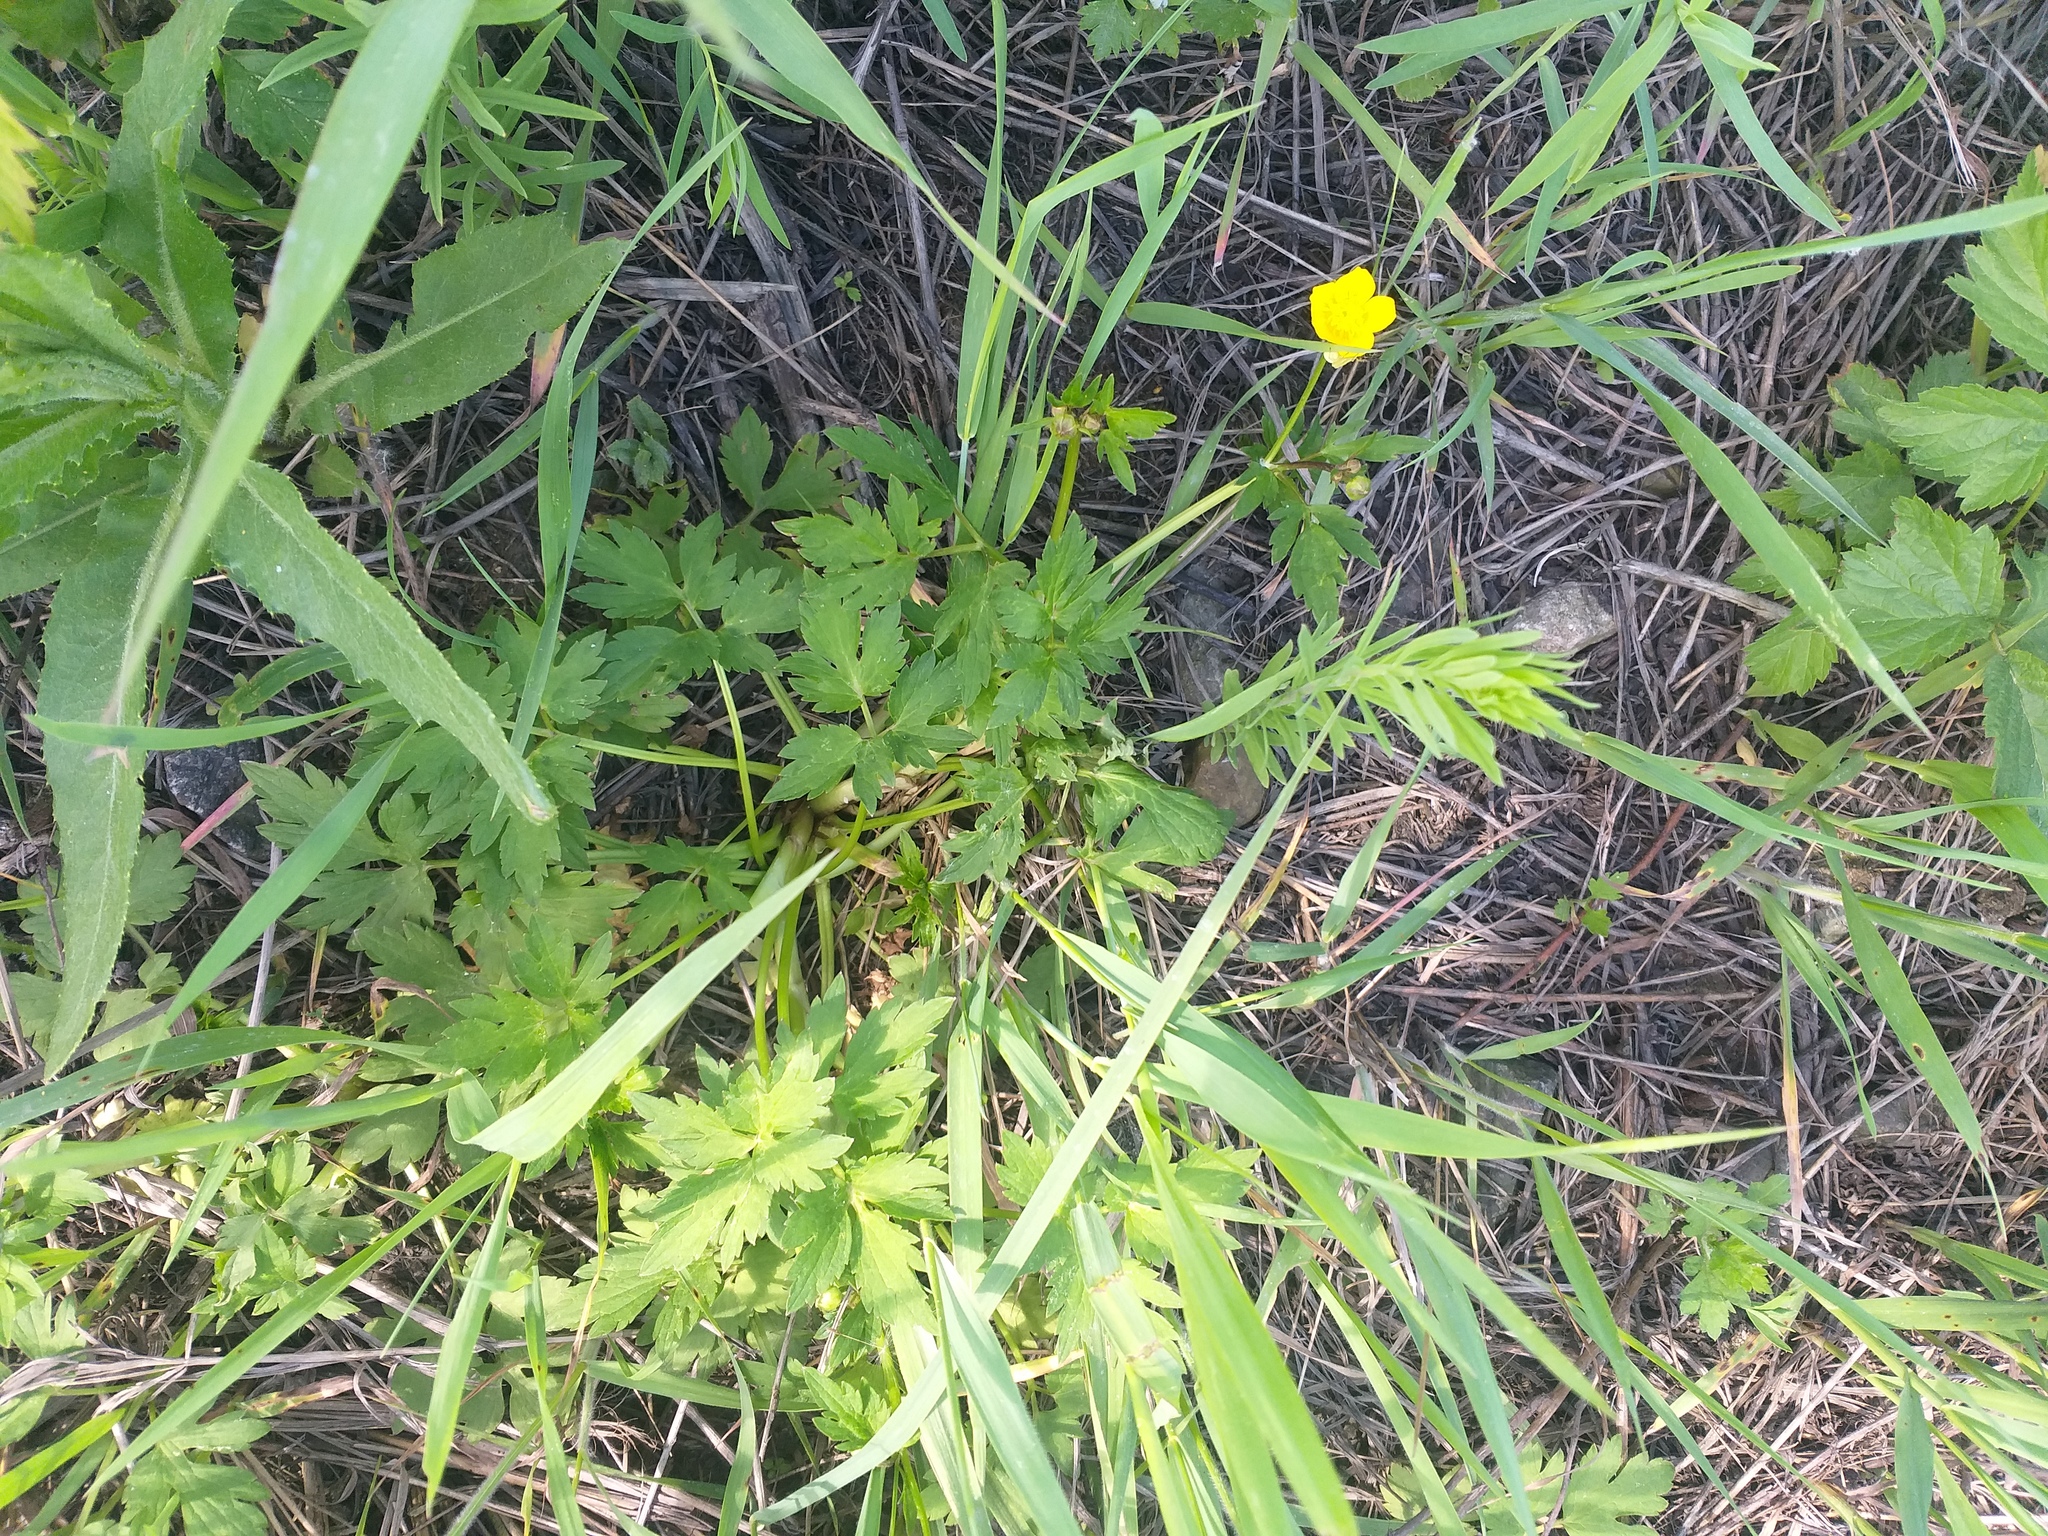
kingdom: Plantae
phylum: Tracheophyta
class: Magnoliopsida
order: Ranunculales
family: Ranunculaceae
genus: Ranunculus
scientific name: Ranunculus repens
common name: Creeping buttercup
